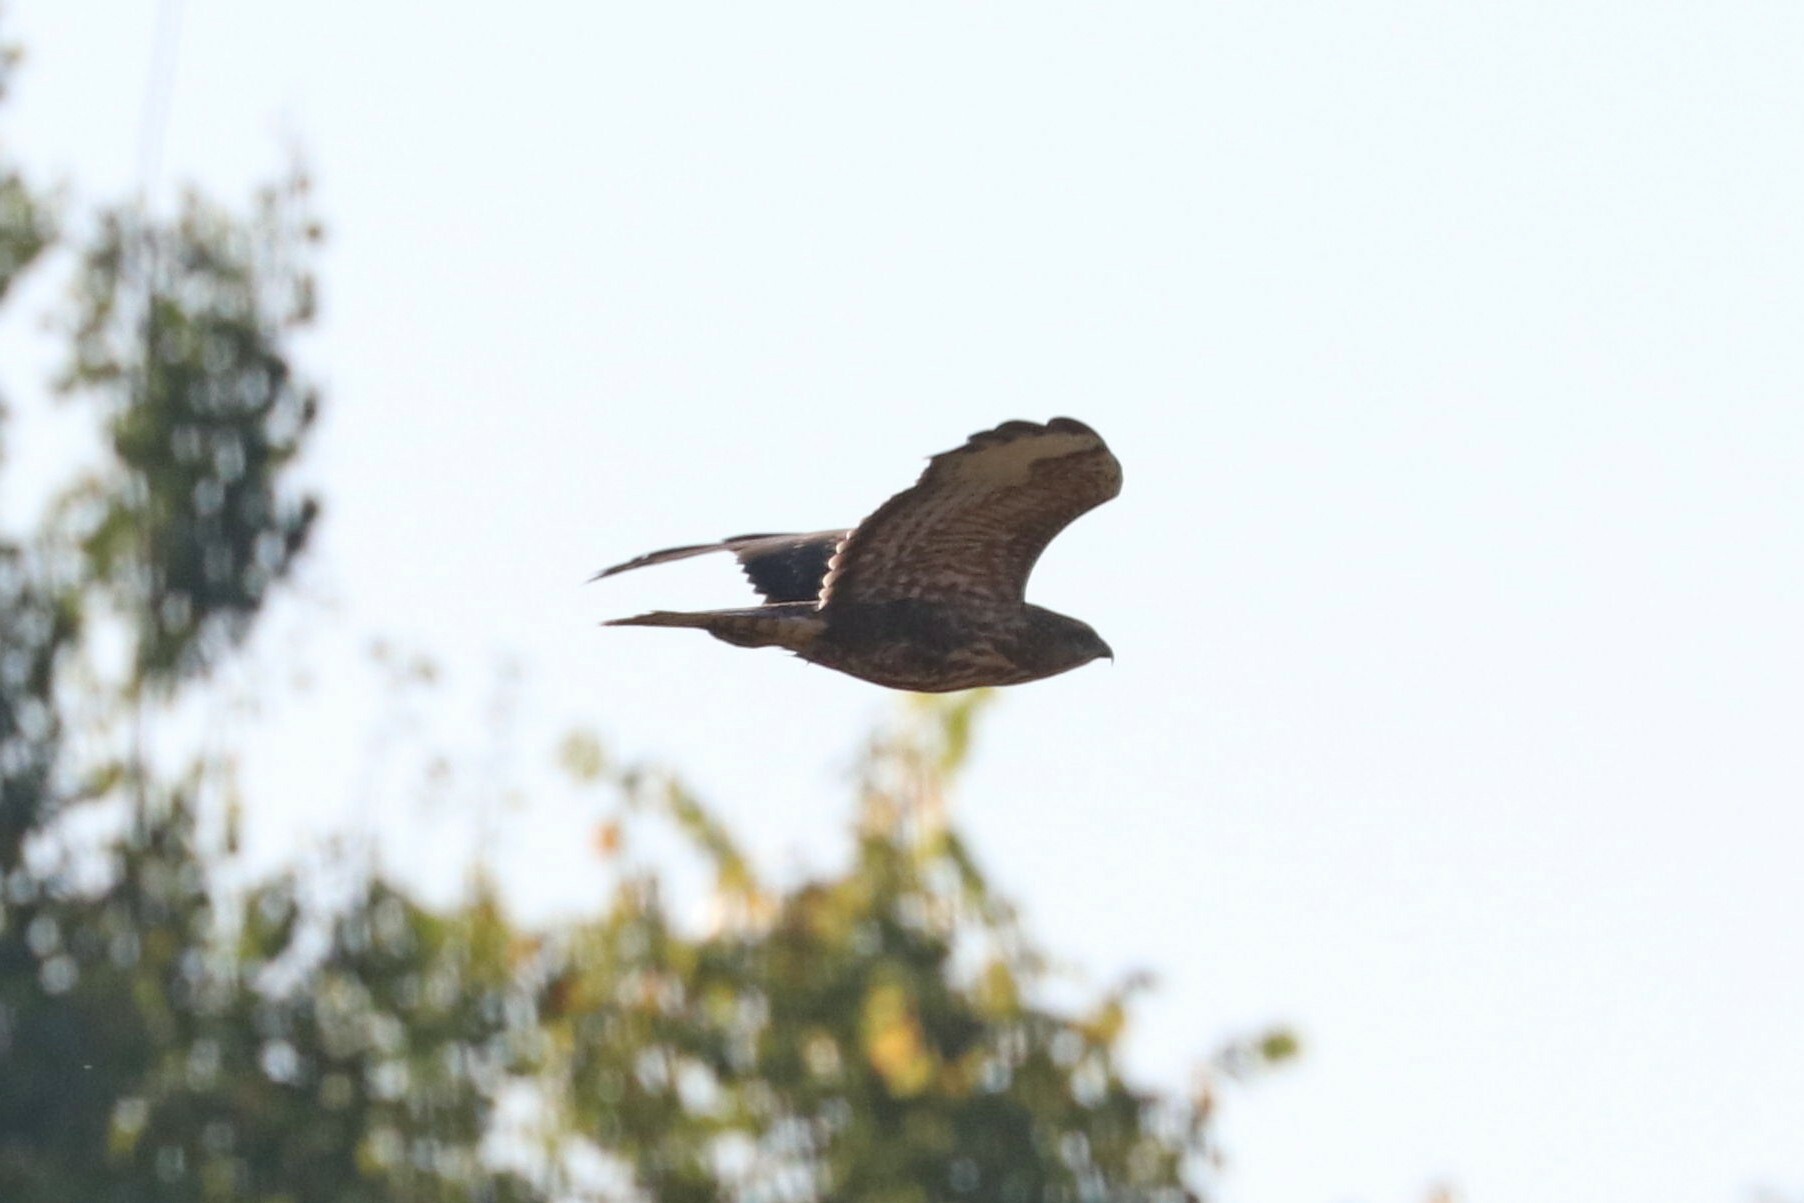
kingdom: Animalia
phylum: Chordata
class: Aves
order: Accipitriformes
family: Accipitridae
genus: Buteo
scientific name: Buteo buteo
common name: Common buzzard
